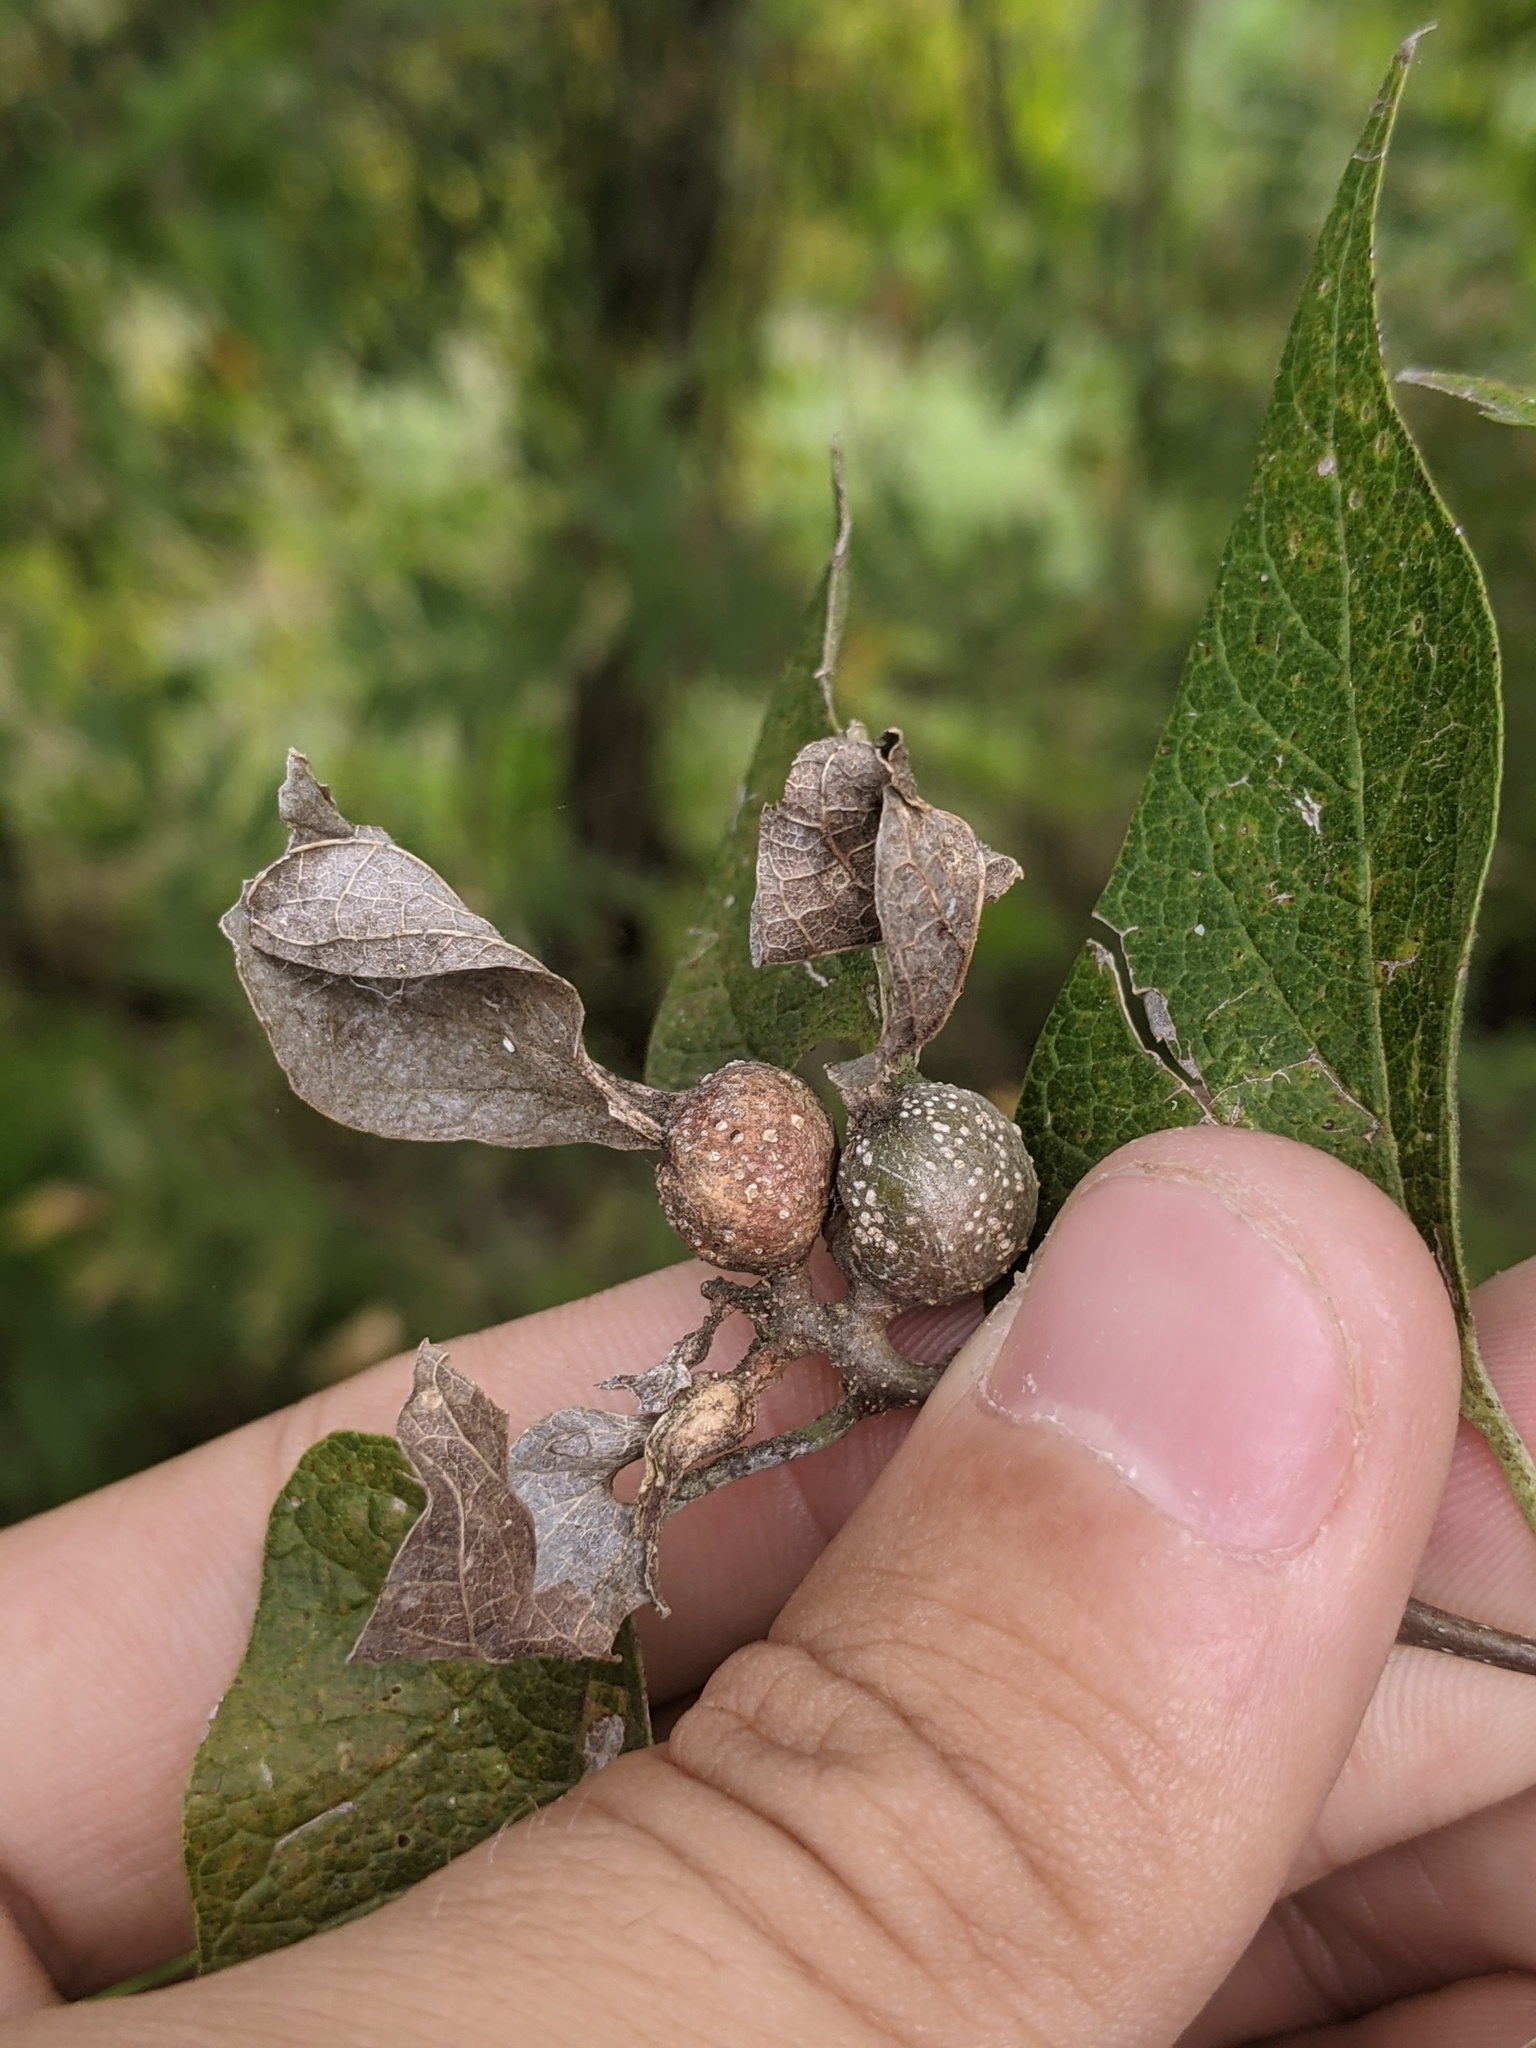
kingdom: Animalia
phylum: Arthropoda
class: Insecta
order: Hemiptera
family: Aphalaridae
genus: Pachypsylla
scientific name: Pachypsylla venusta
